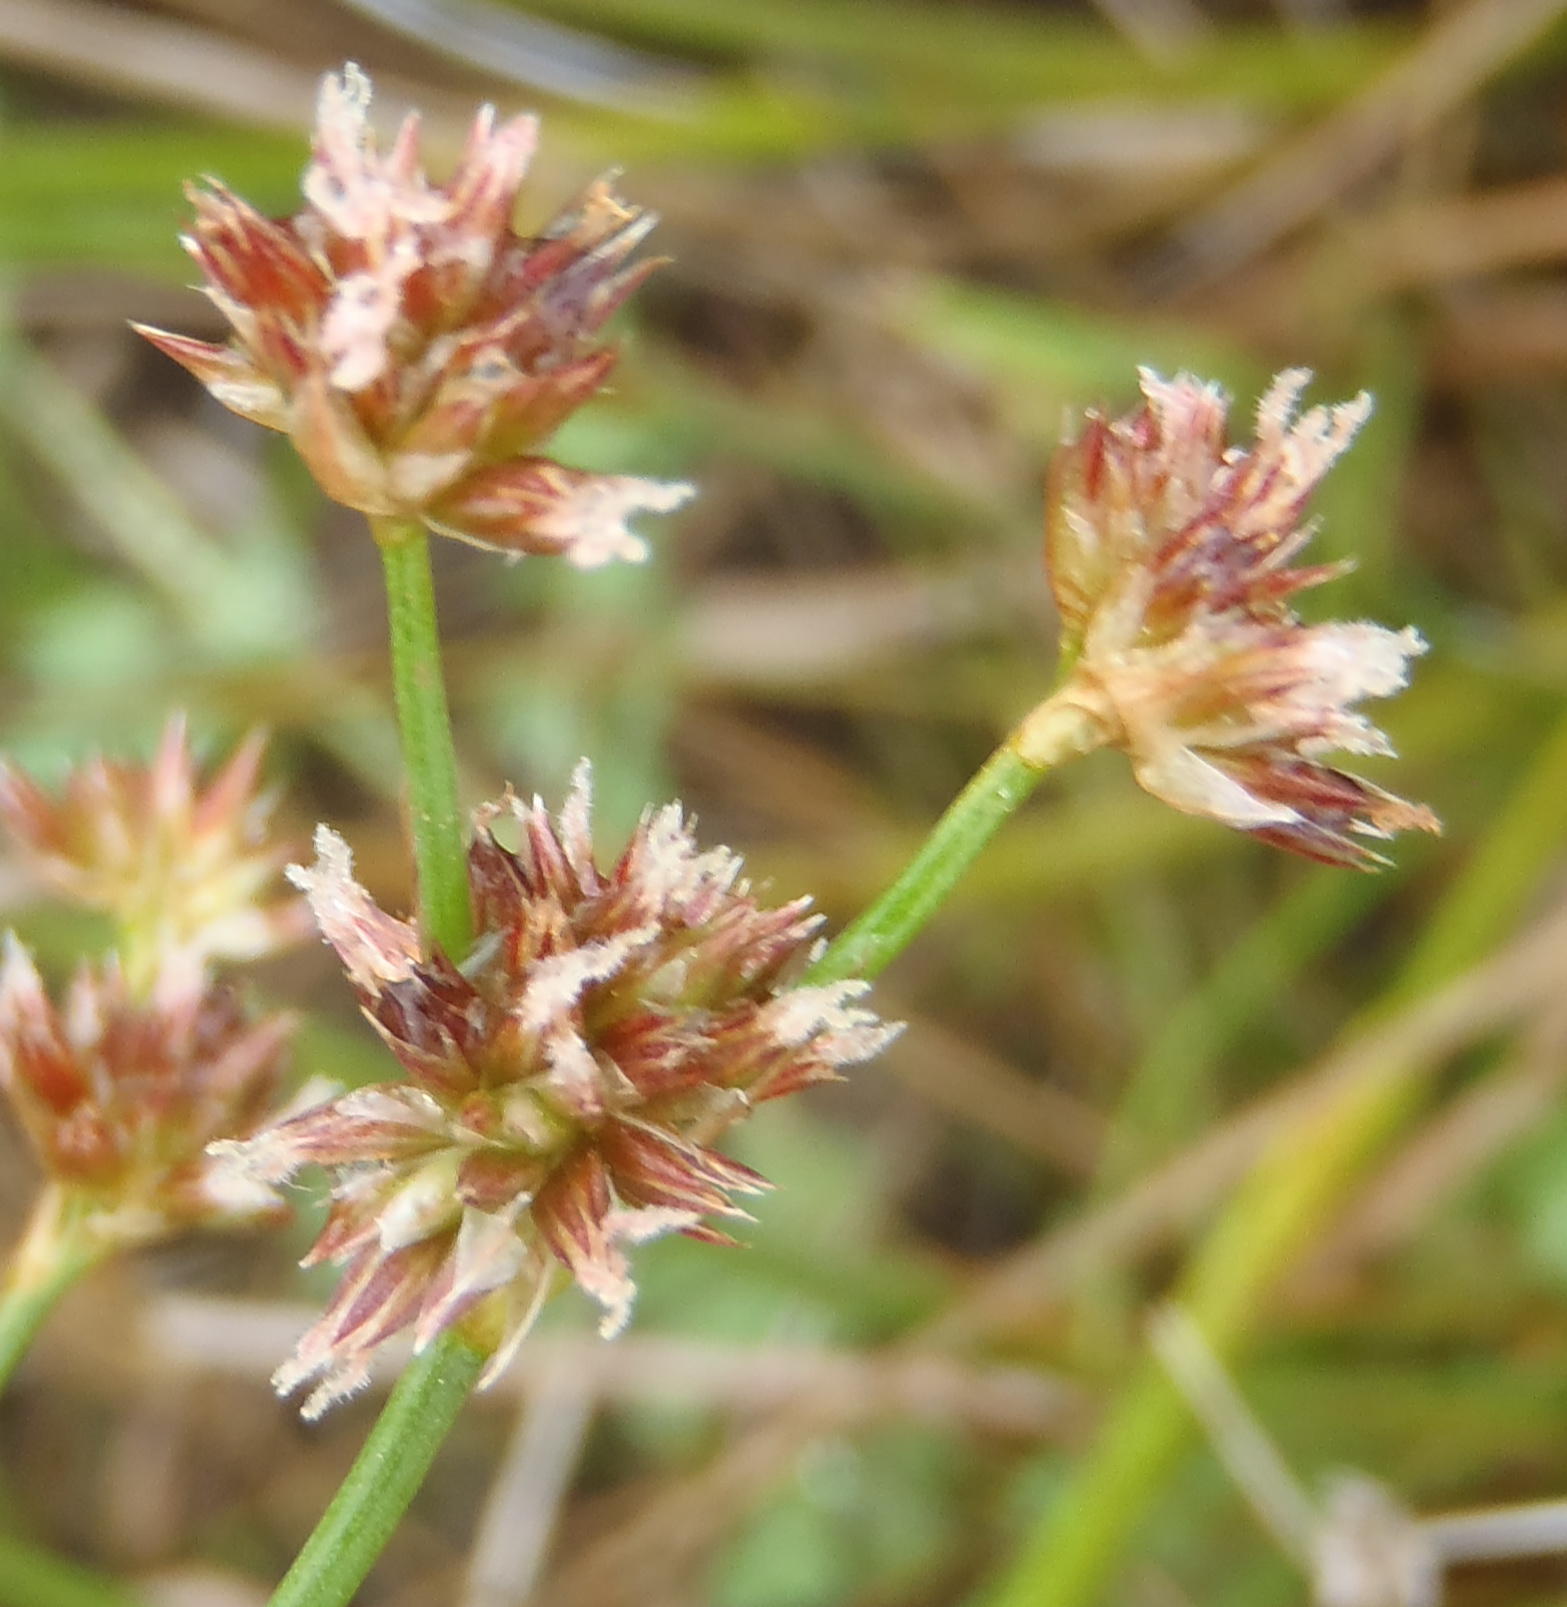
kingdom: Plantae
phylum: Tracheophyta
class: Liliopsida
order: Poales
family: Juncaceae
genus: Juncus
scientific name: Juncus oxycarpus
